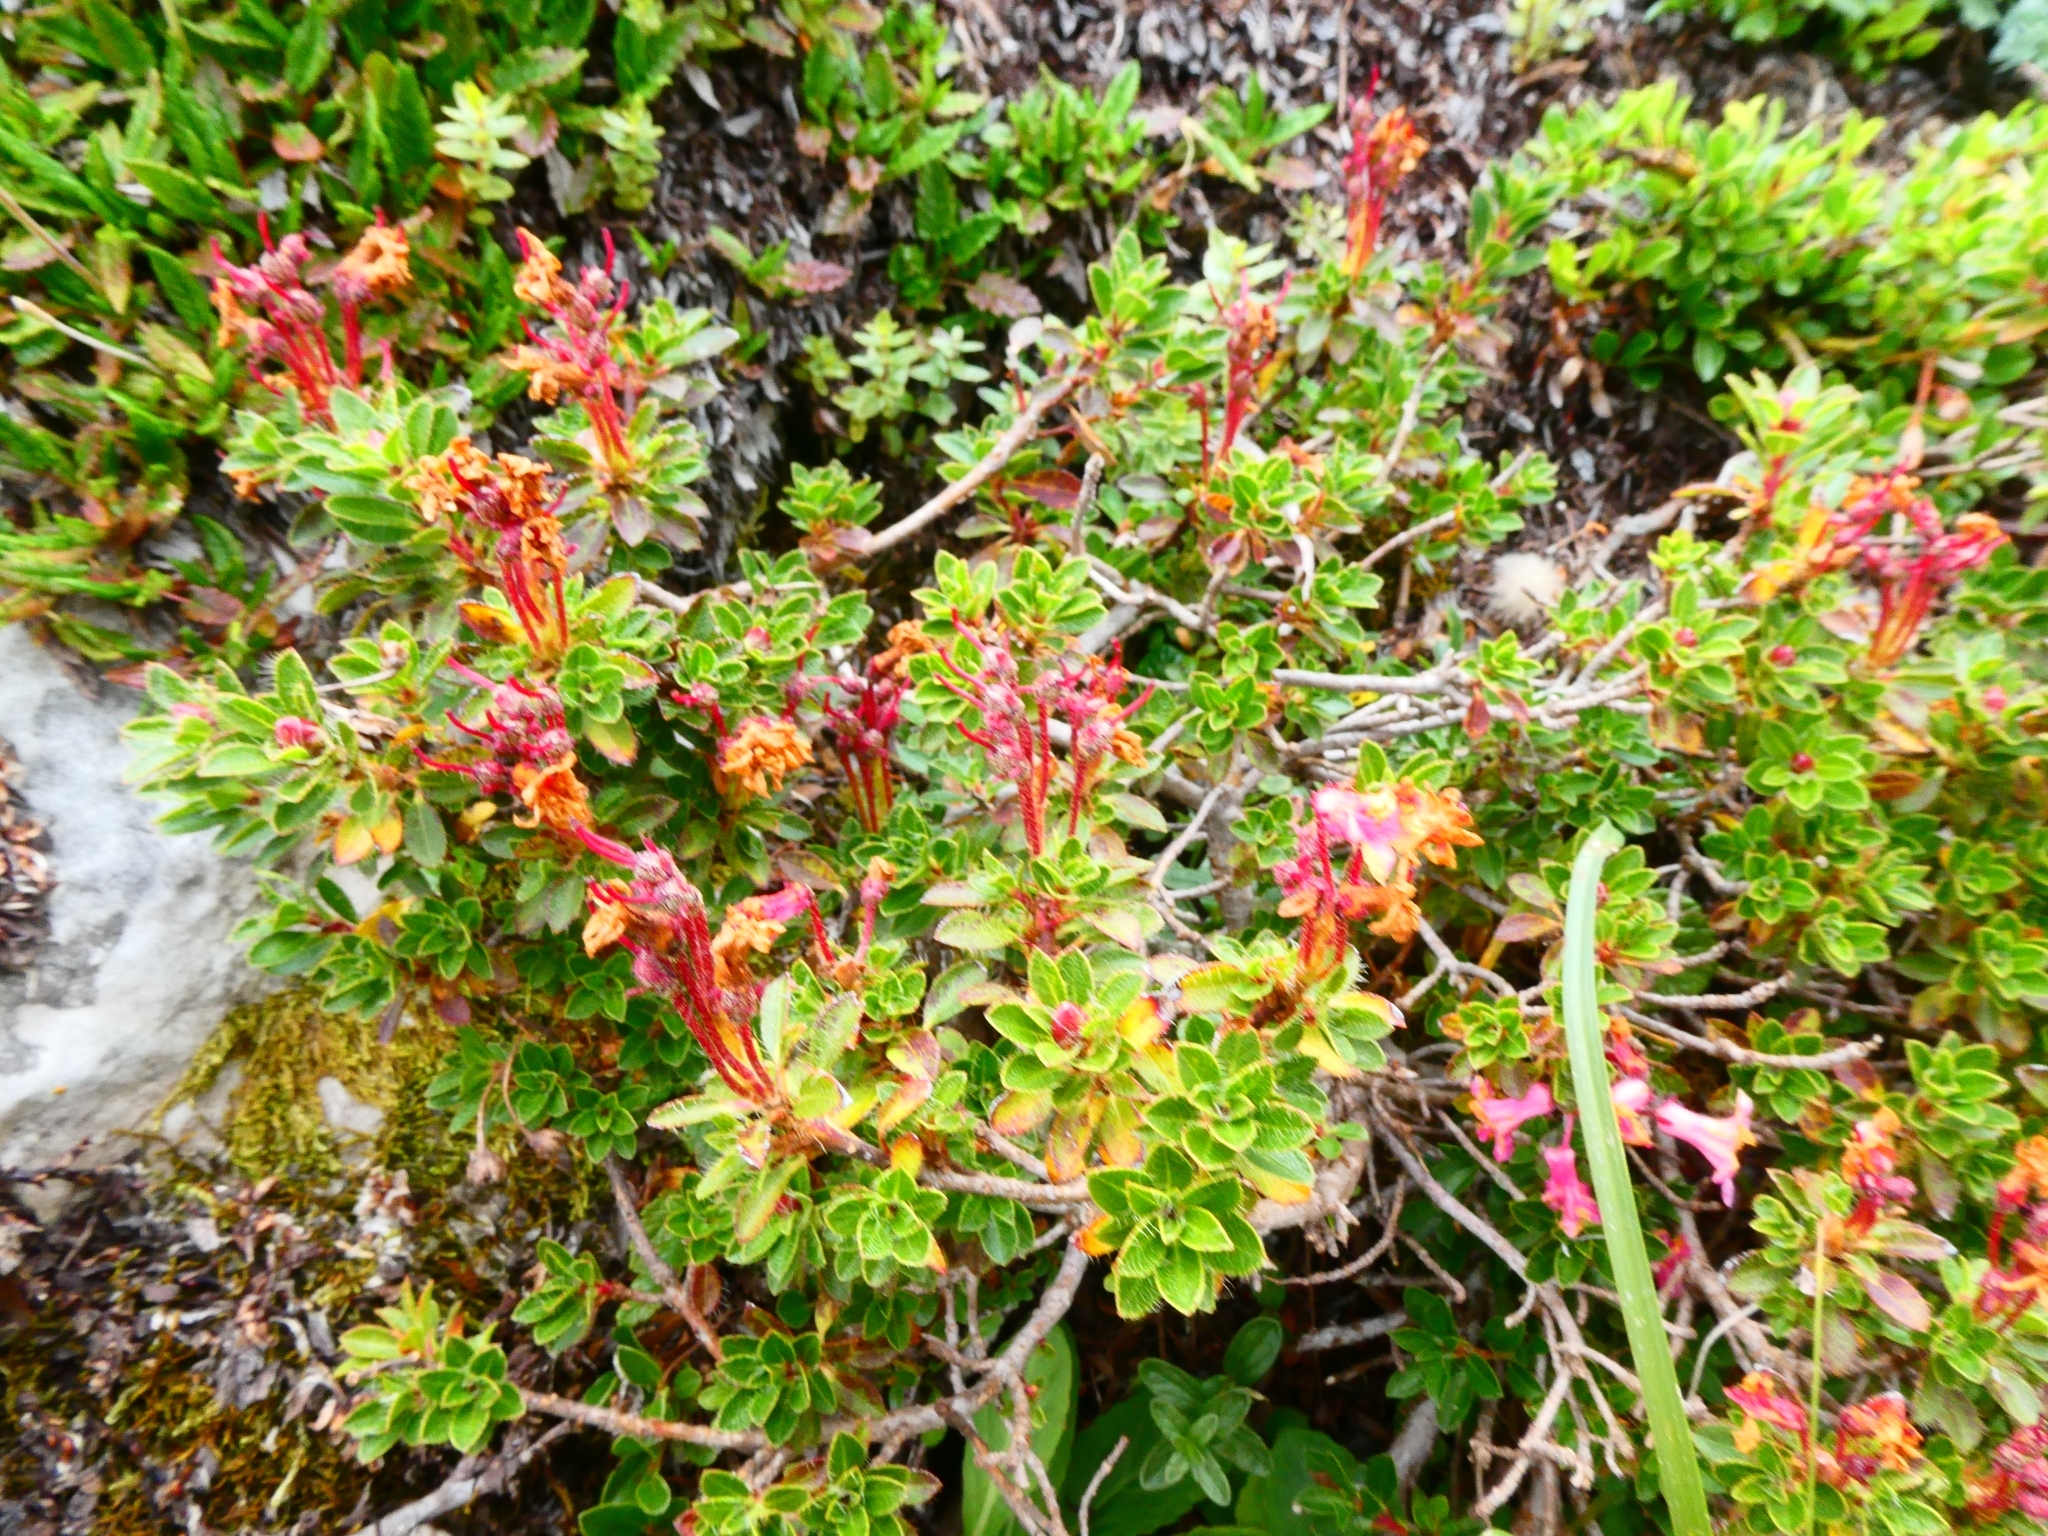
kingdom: Plantae
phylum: Tracheophyta
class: Magnoliopsida
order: Ericales
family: Ericaceae
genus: Rhododendron
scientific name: Rhododendron hirsutum
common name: Hairy alpenrose
